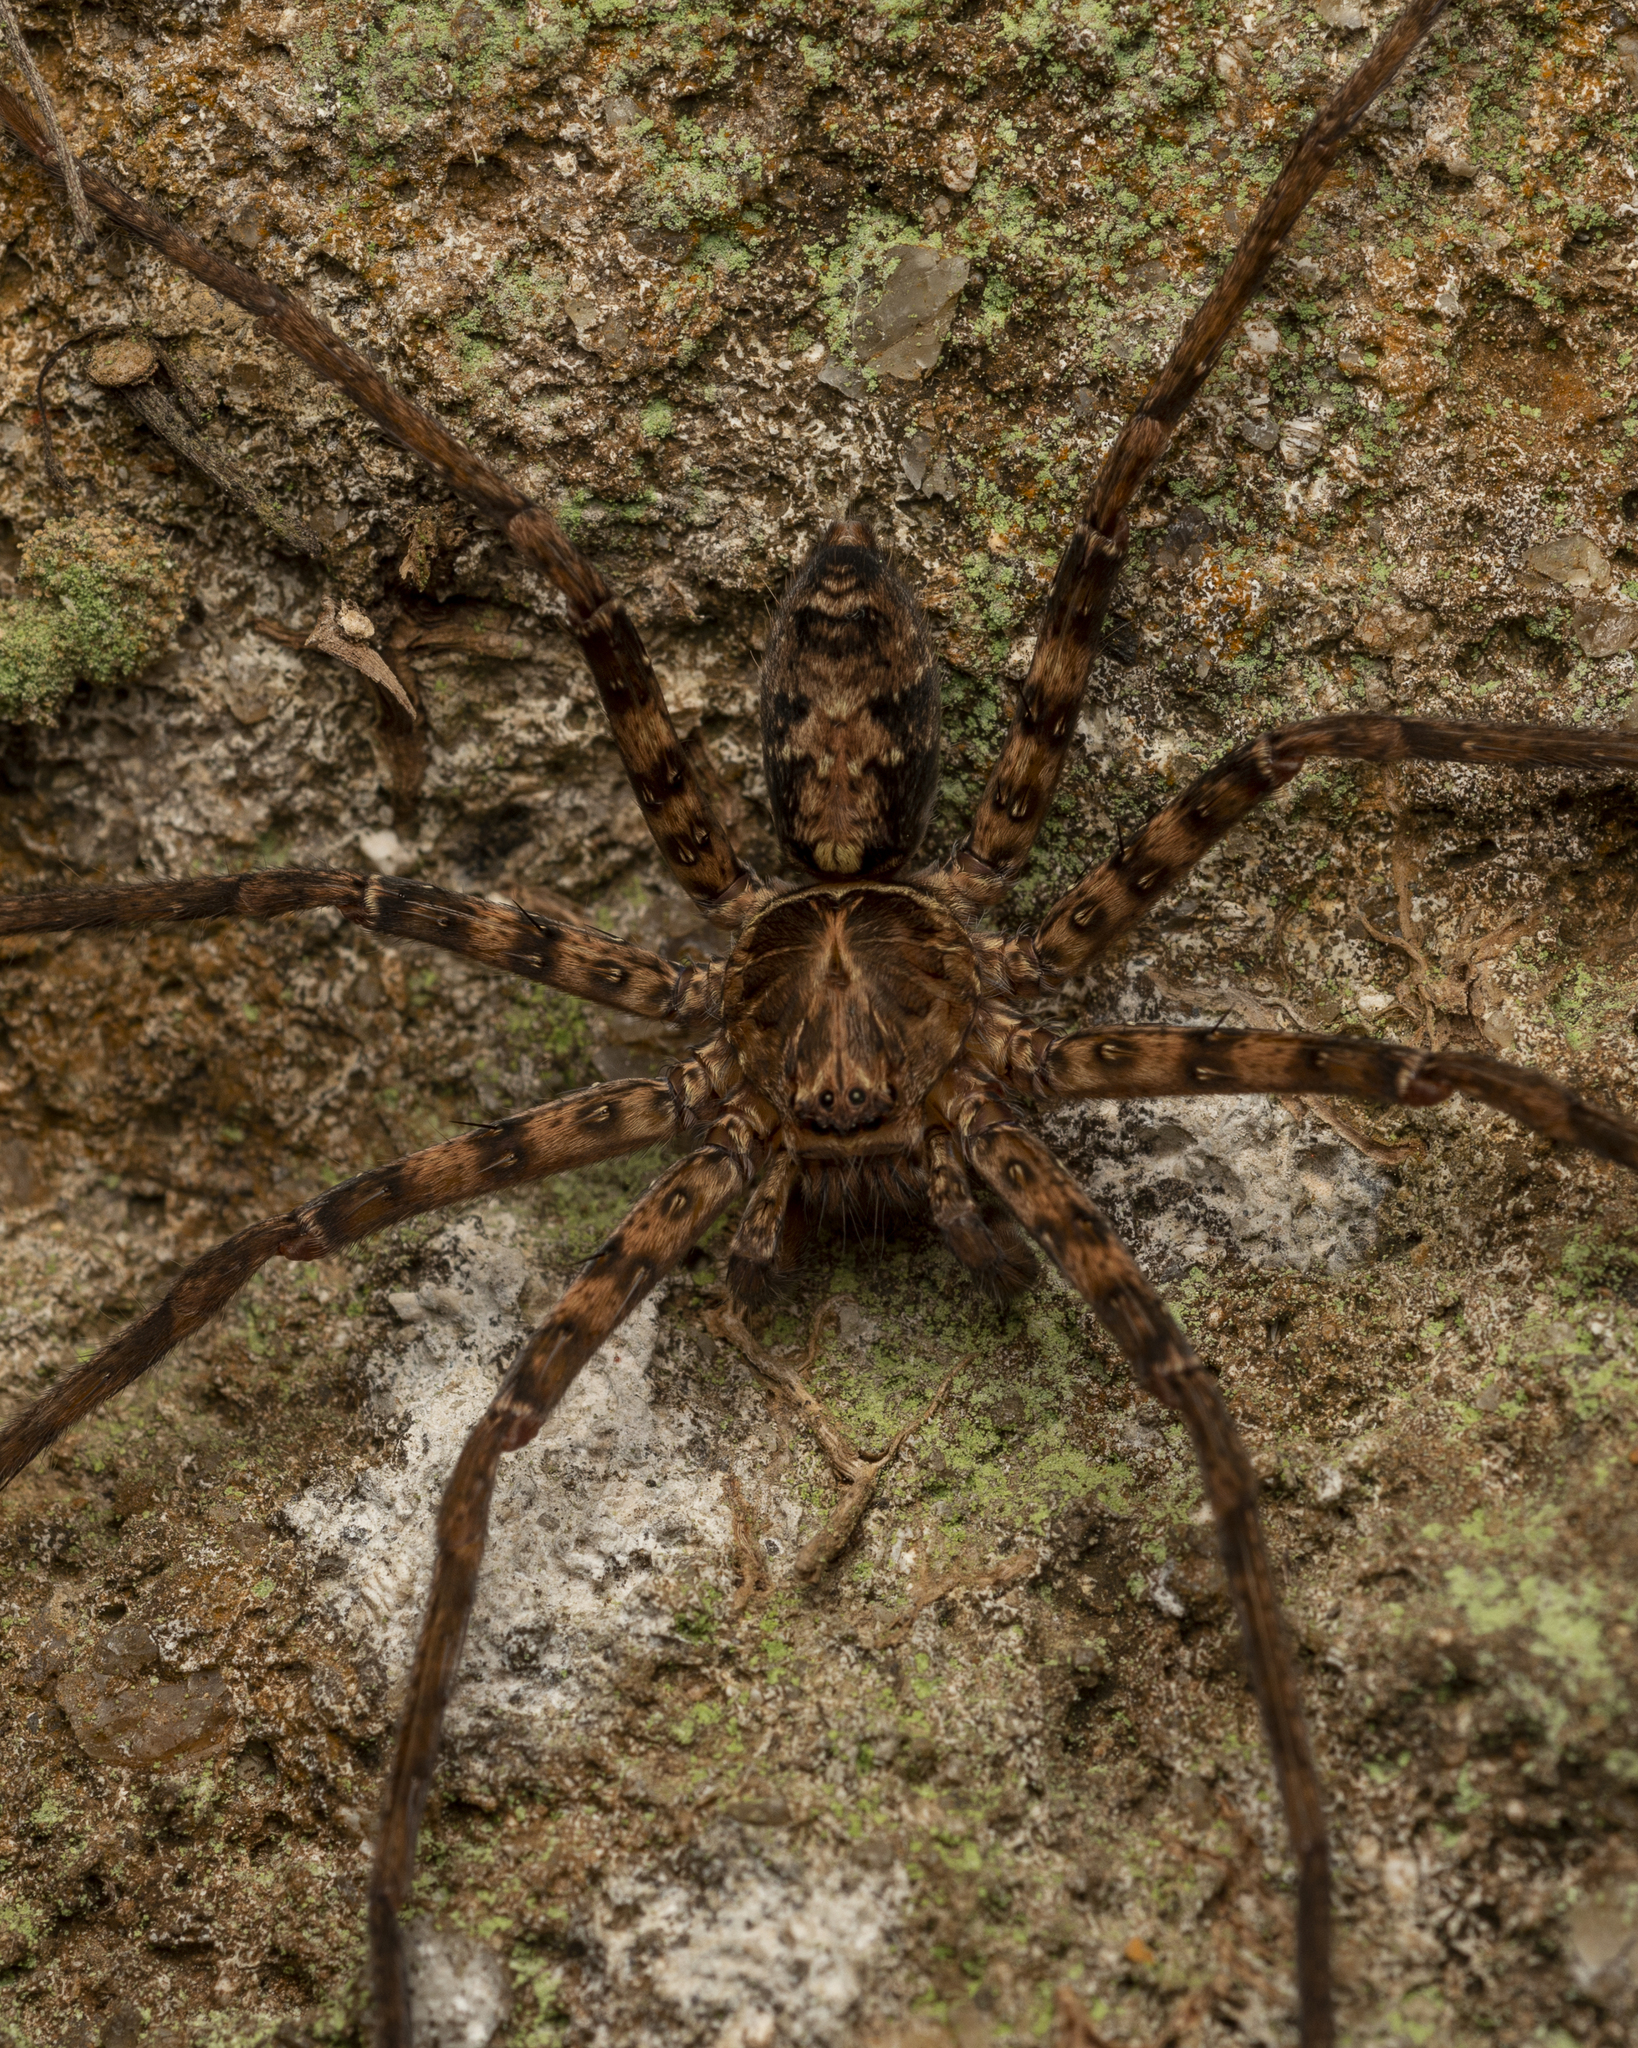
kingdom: Animalia
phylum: Arthropoda
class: Arachnida
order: Araneae
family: Sparassidae
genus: Heteropoda
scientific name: Heteropoda amphora
